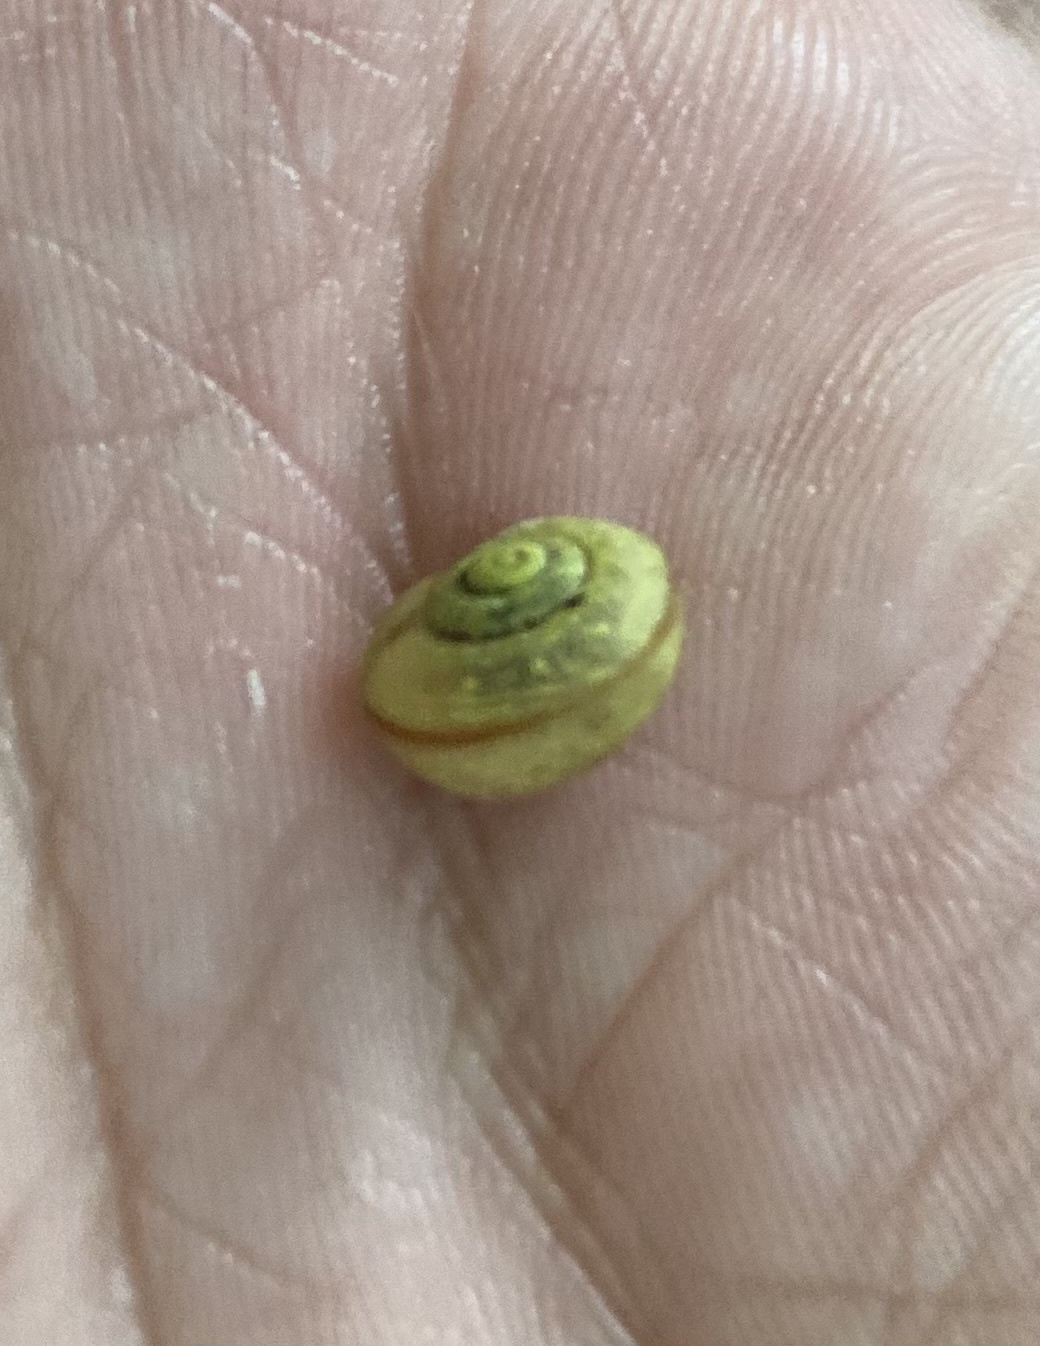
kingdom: Animalia
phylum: Mollusca
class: Gastropoda
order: Stylommatophora
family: Camaenidae
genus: Karaftohelix
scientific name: Karaftohelix blakeana
